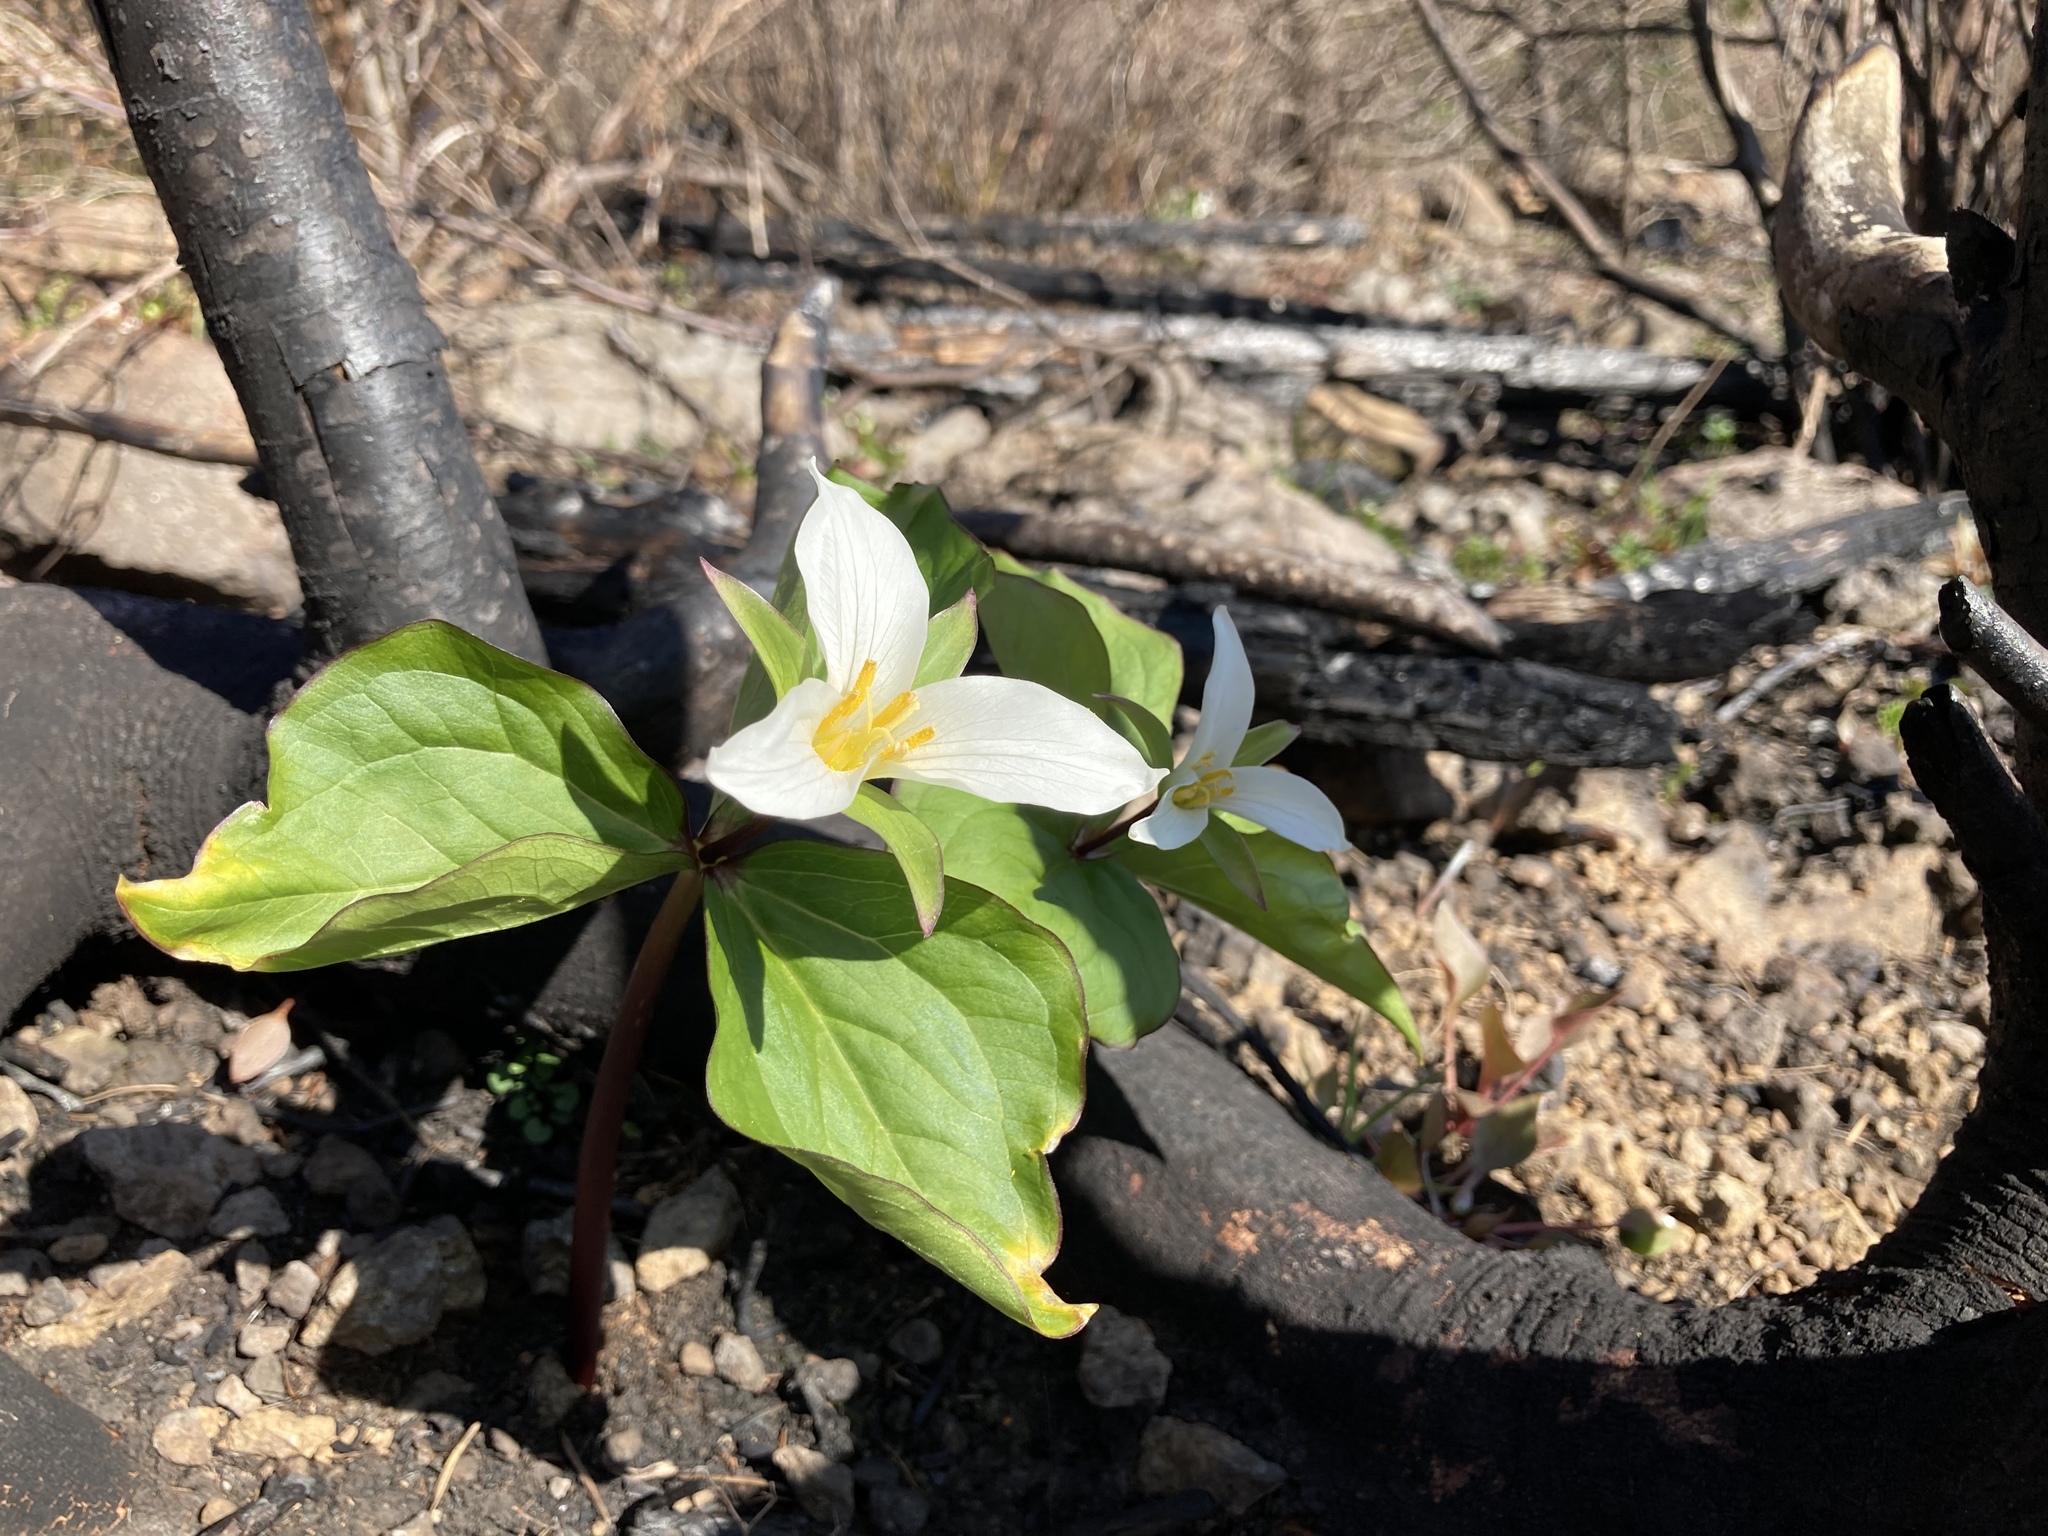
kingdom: Plantae
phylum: Tracheophyta
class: Liliopsida
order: Liliales
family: Melanthiaceae
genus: Trillium
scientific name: Trillium ovatum
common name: Pacific trillium
